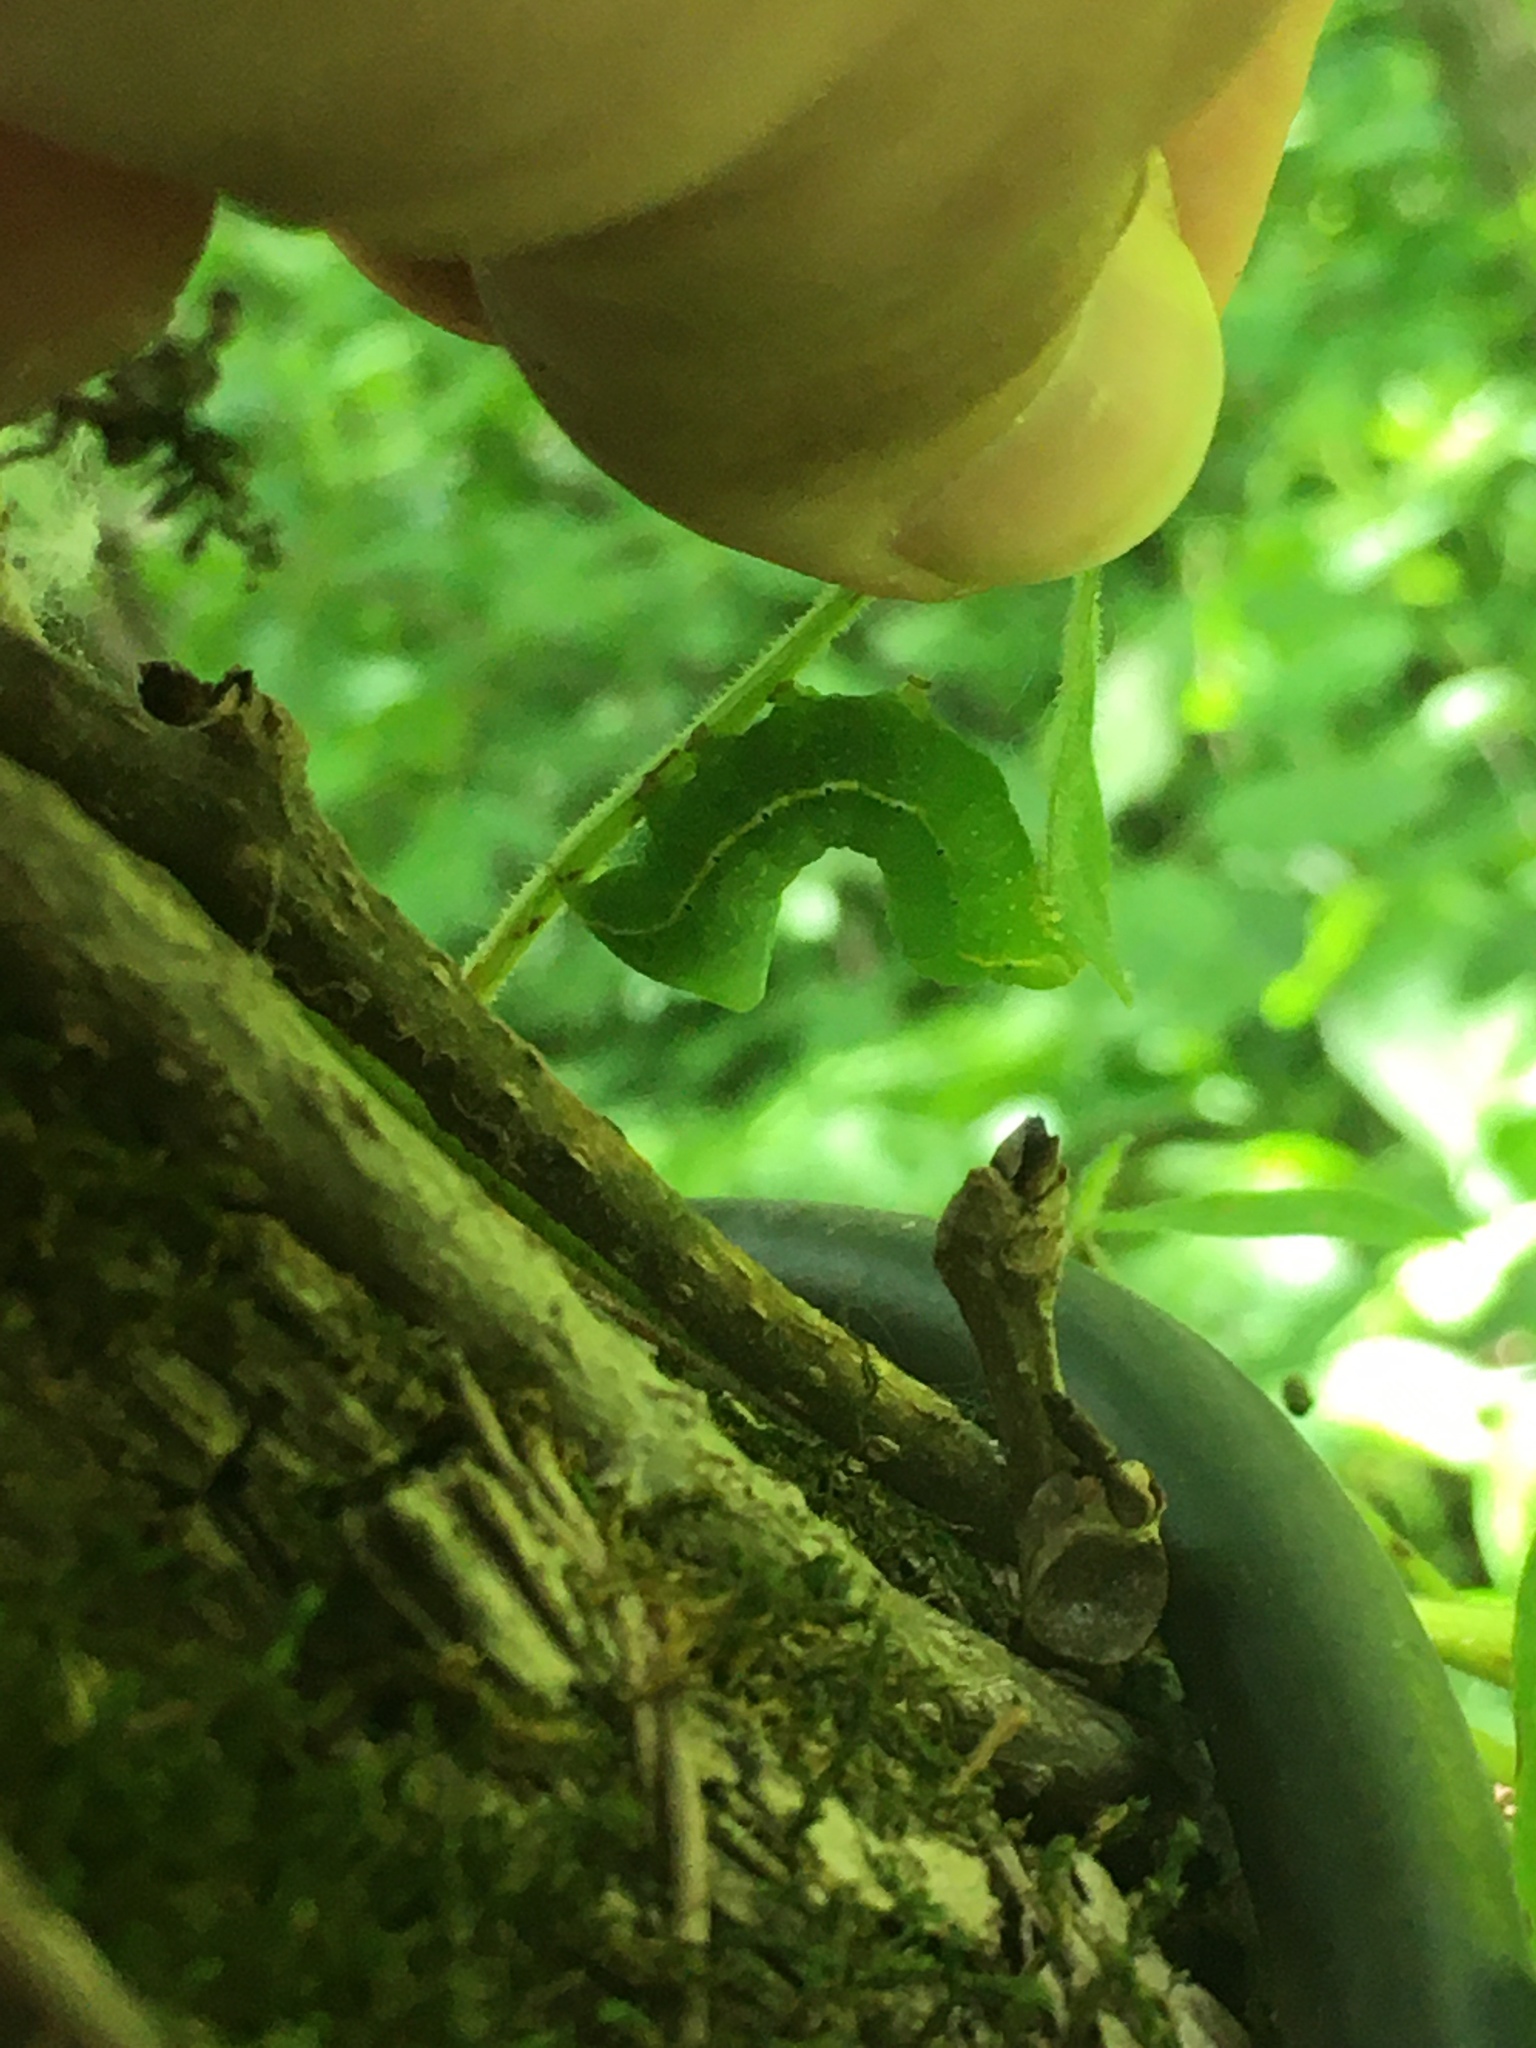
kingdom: Animalia
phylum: Arthropoda
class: Insecta
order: Lepidoptera
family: Noctuidae
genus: Amphipyra
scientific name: Amphipyra pyramidoides
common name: American copper underwing
